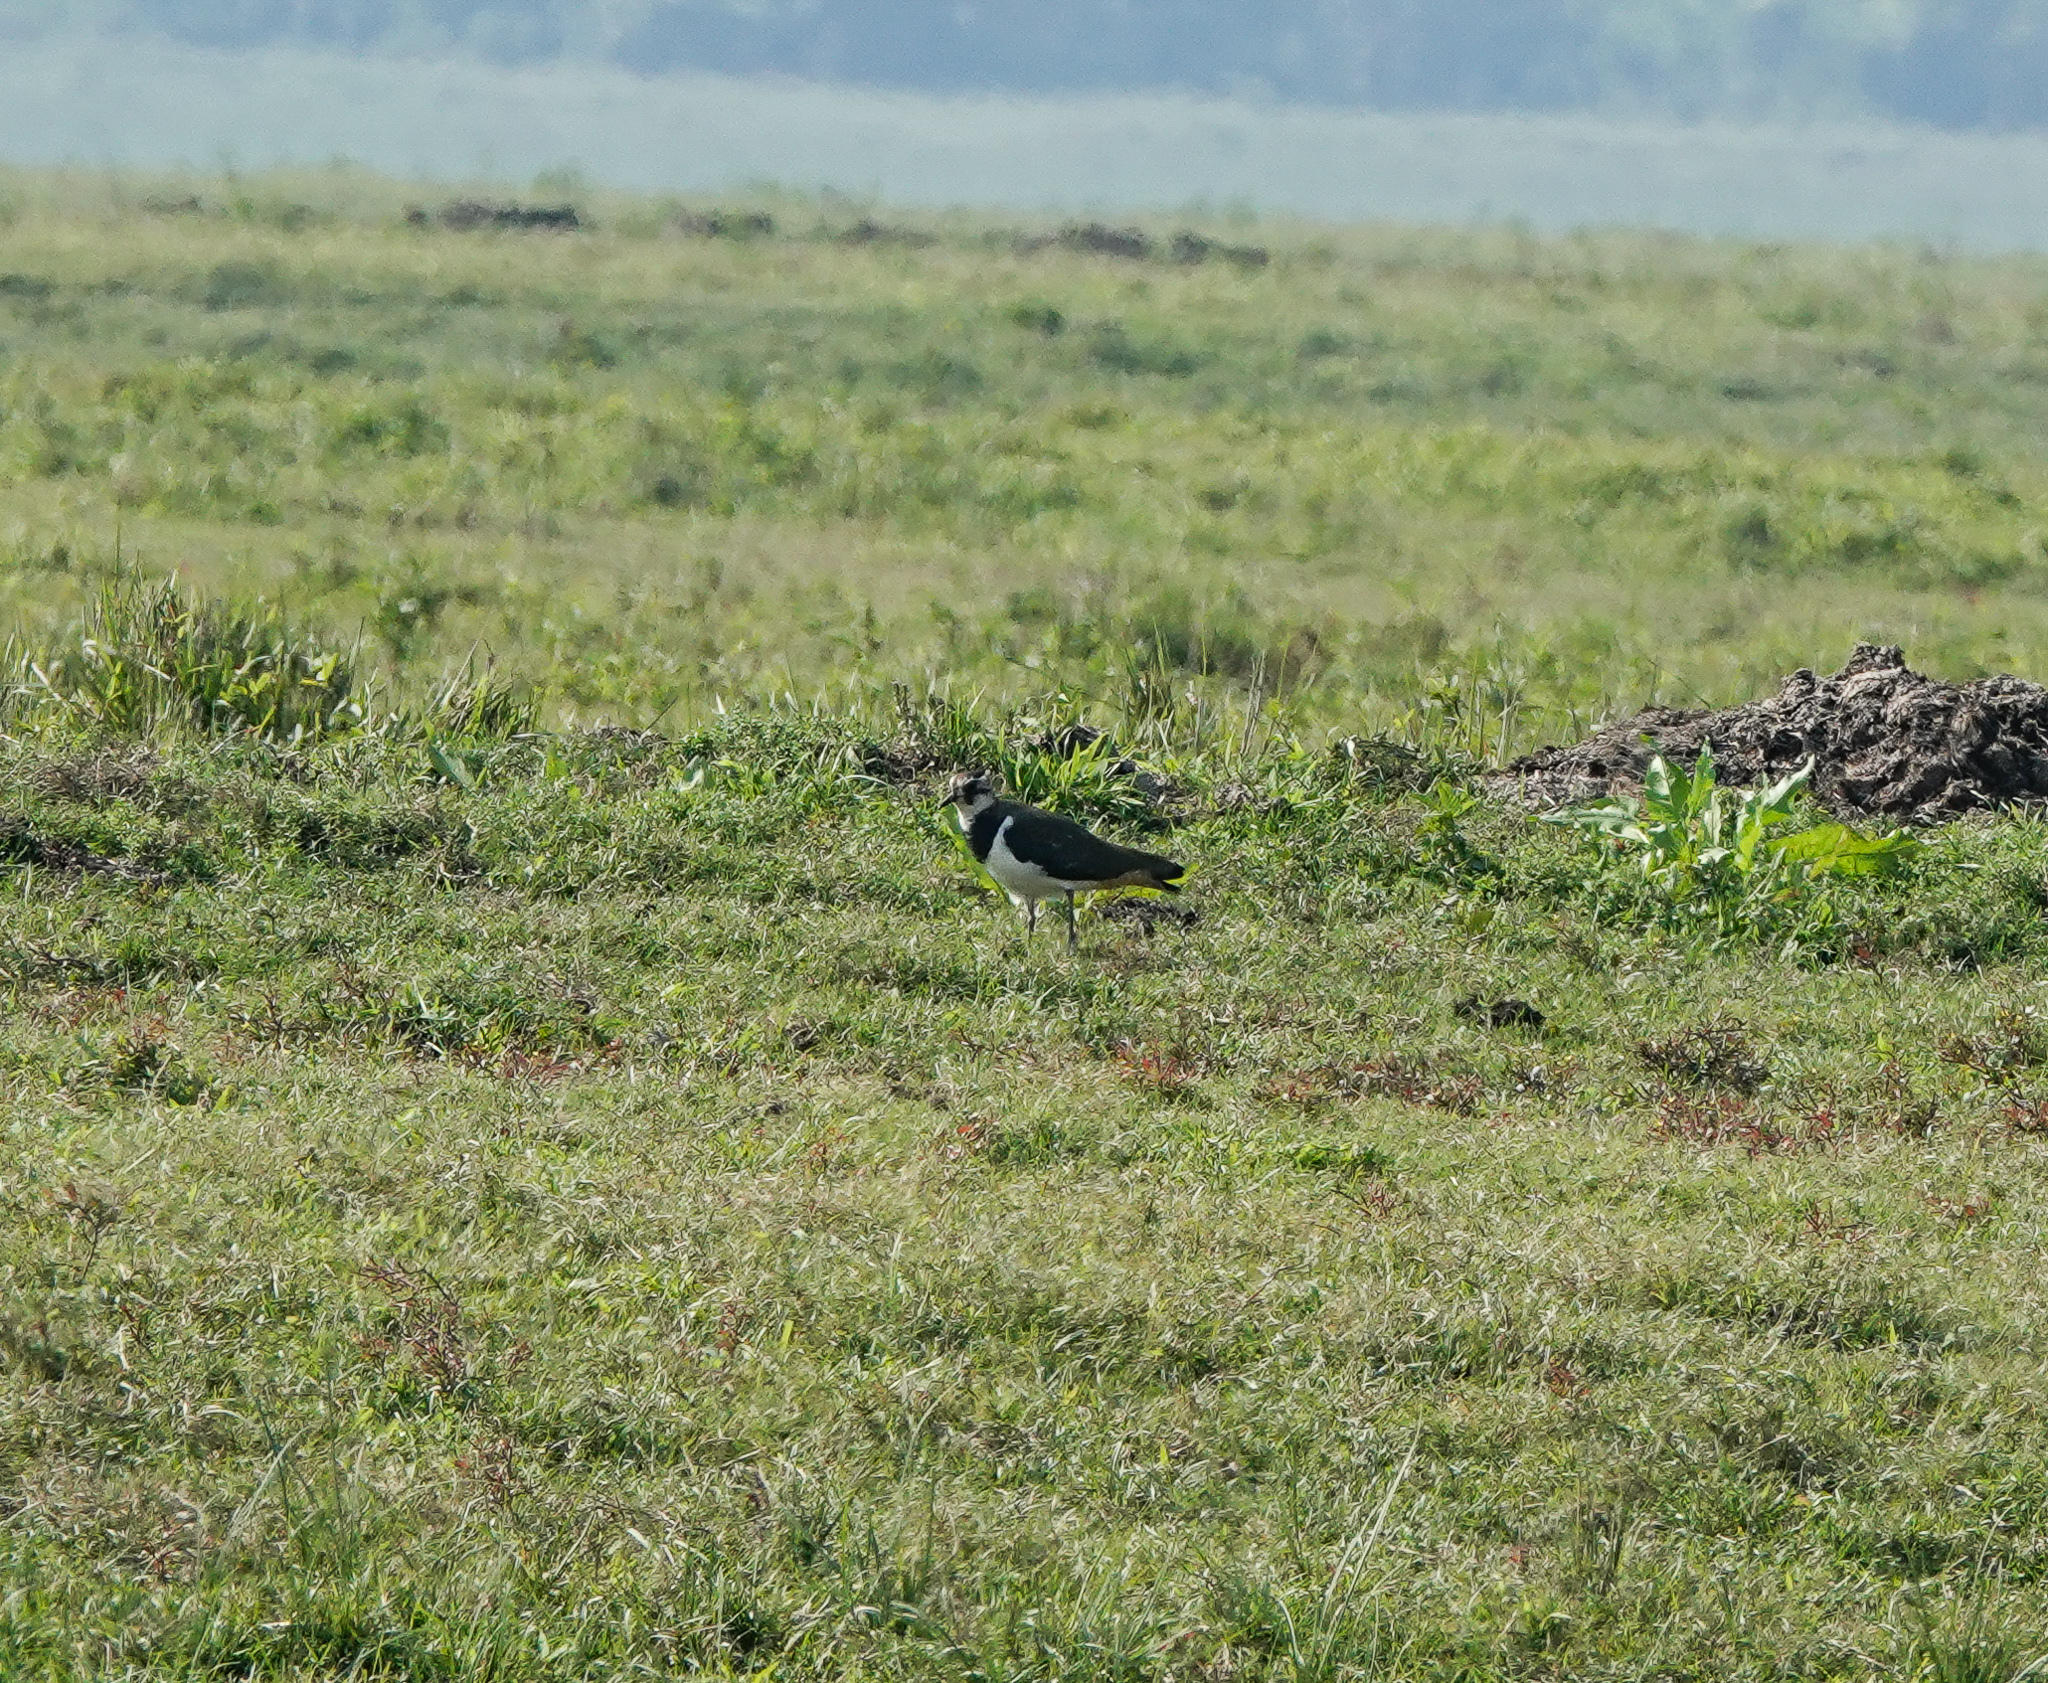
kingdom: Animalia
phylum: Chordata
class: Aves
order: Charadriiformes
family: Charadriidae
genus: Vanellus
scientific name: Vanellus vanellus
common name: Northern lapwing
